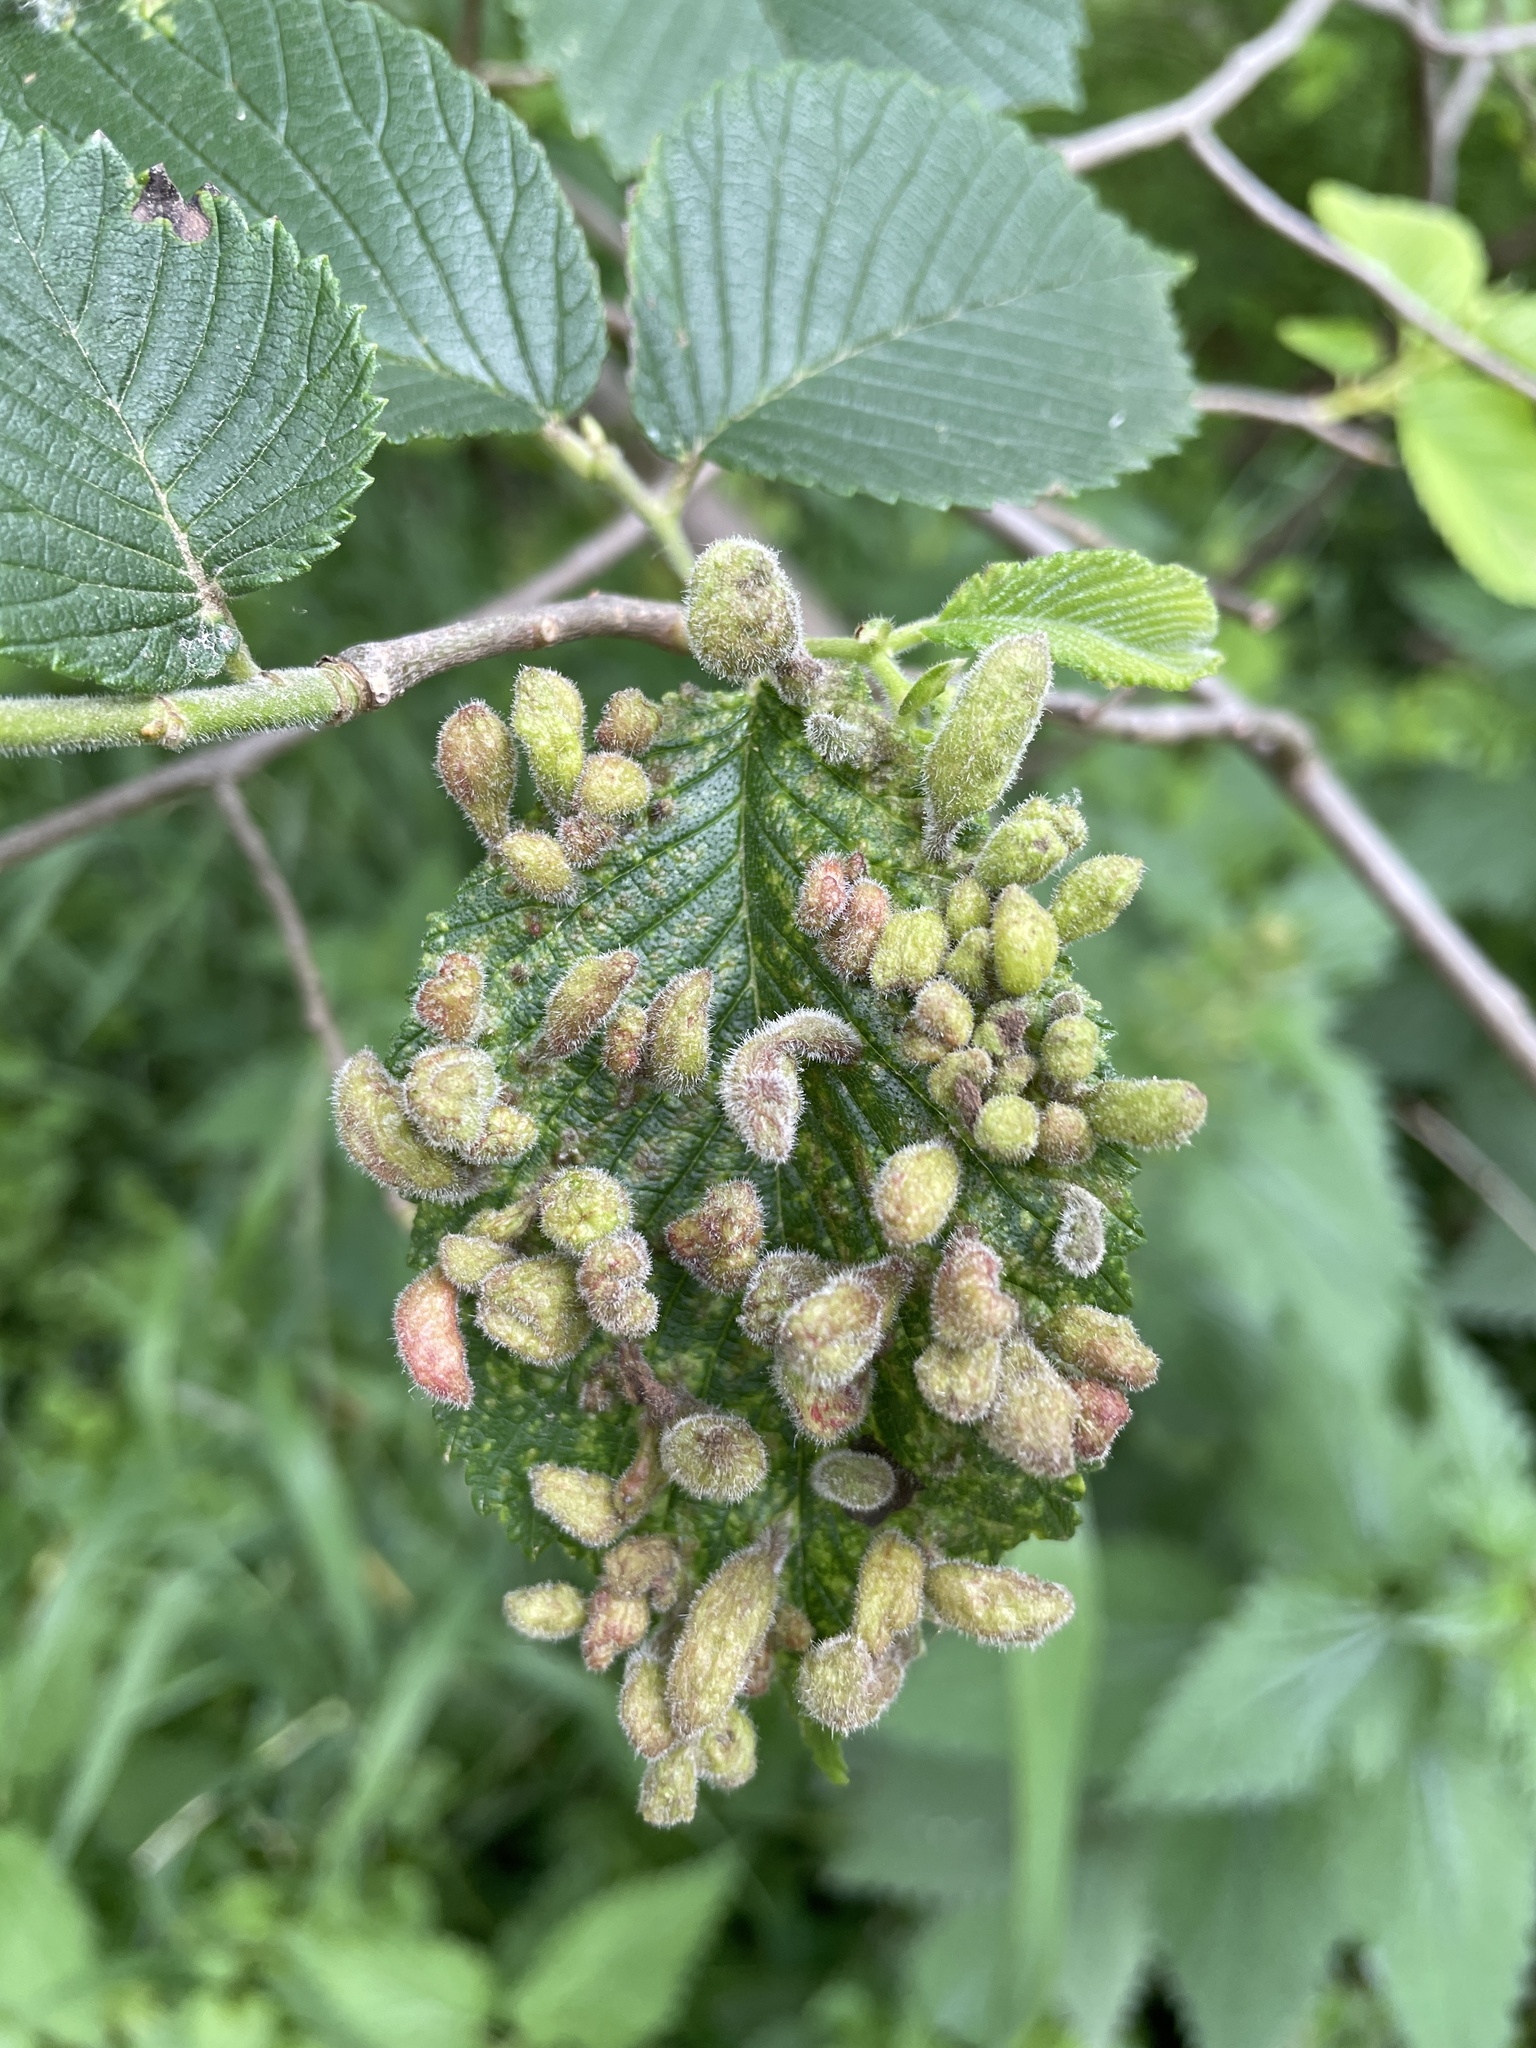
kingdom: Animalia
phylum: Arthropoda
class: Insecta
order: Hemiptera
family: Aphididae
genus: Tetraneura
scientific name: Tetraneura nigriabdominalis
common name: Aphid
